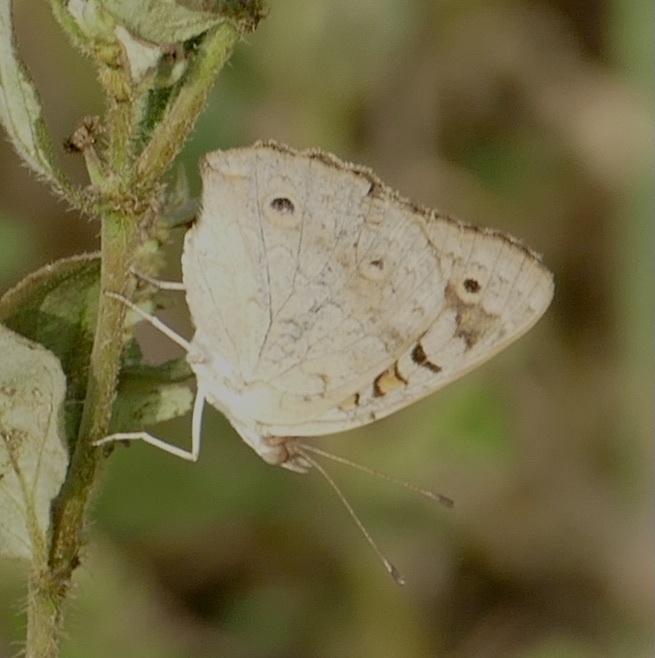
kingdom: Animalia
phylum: Arthropoda
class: Insecta
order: Lepidoptera
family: Nymphalidae
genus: Junonia
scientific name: Junonia hierta
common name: Yellow pansy
